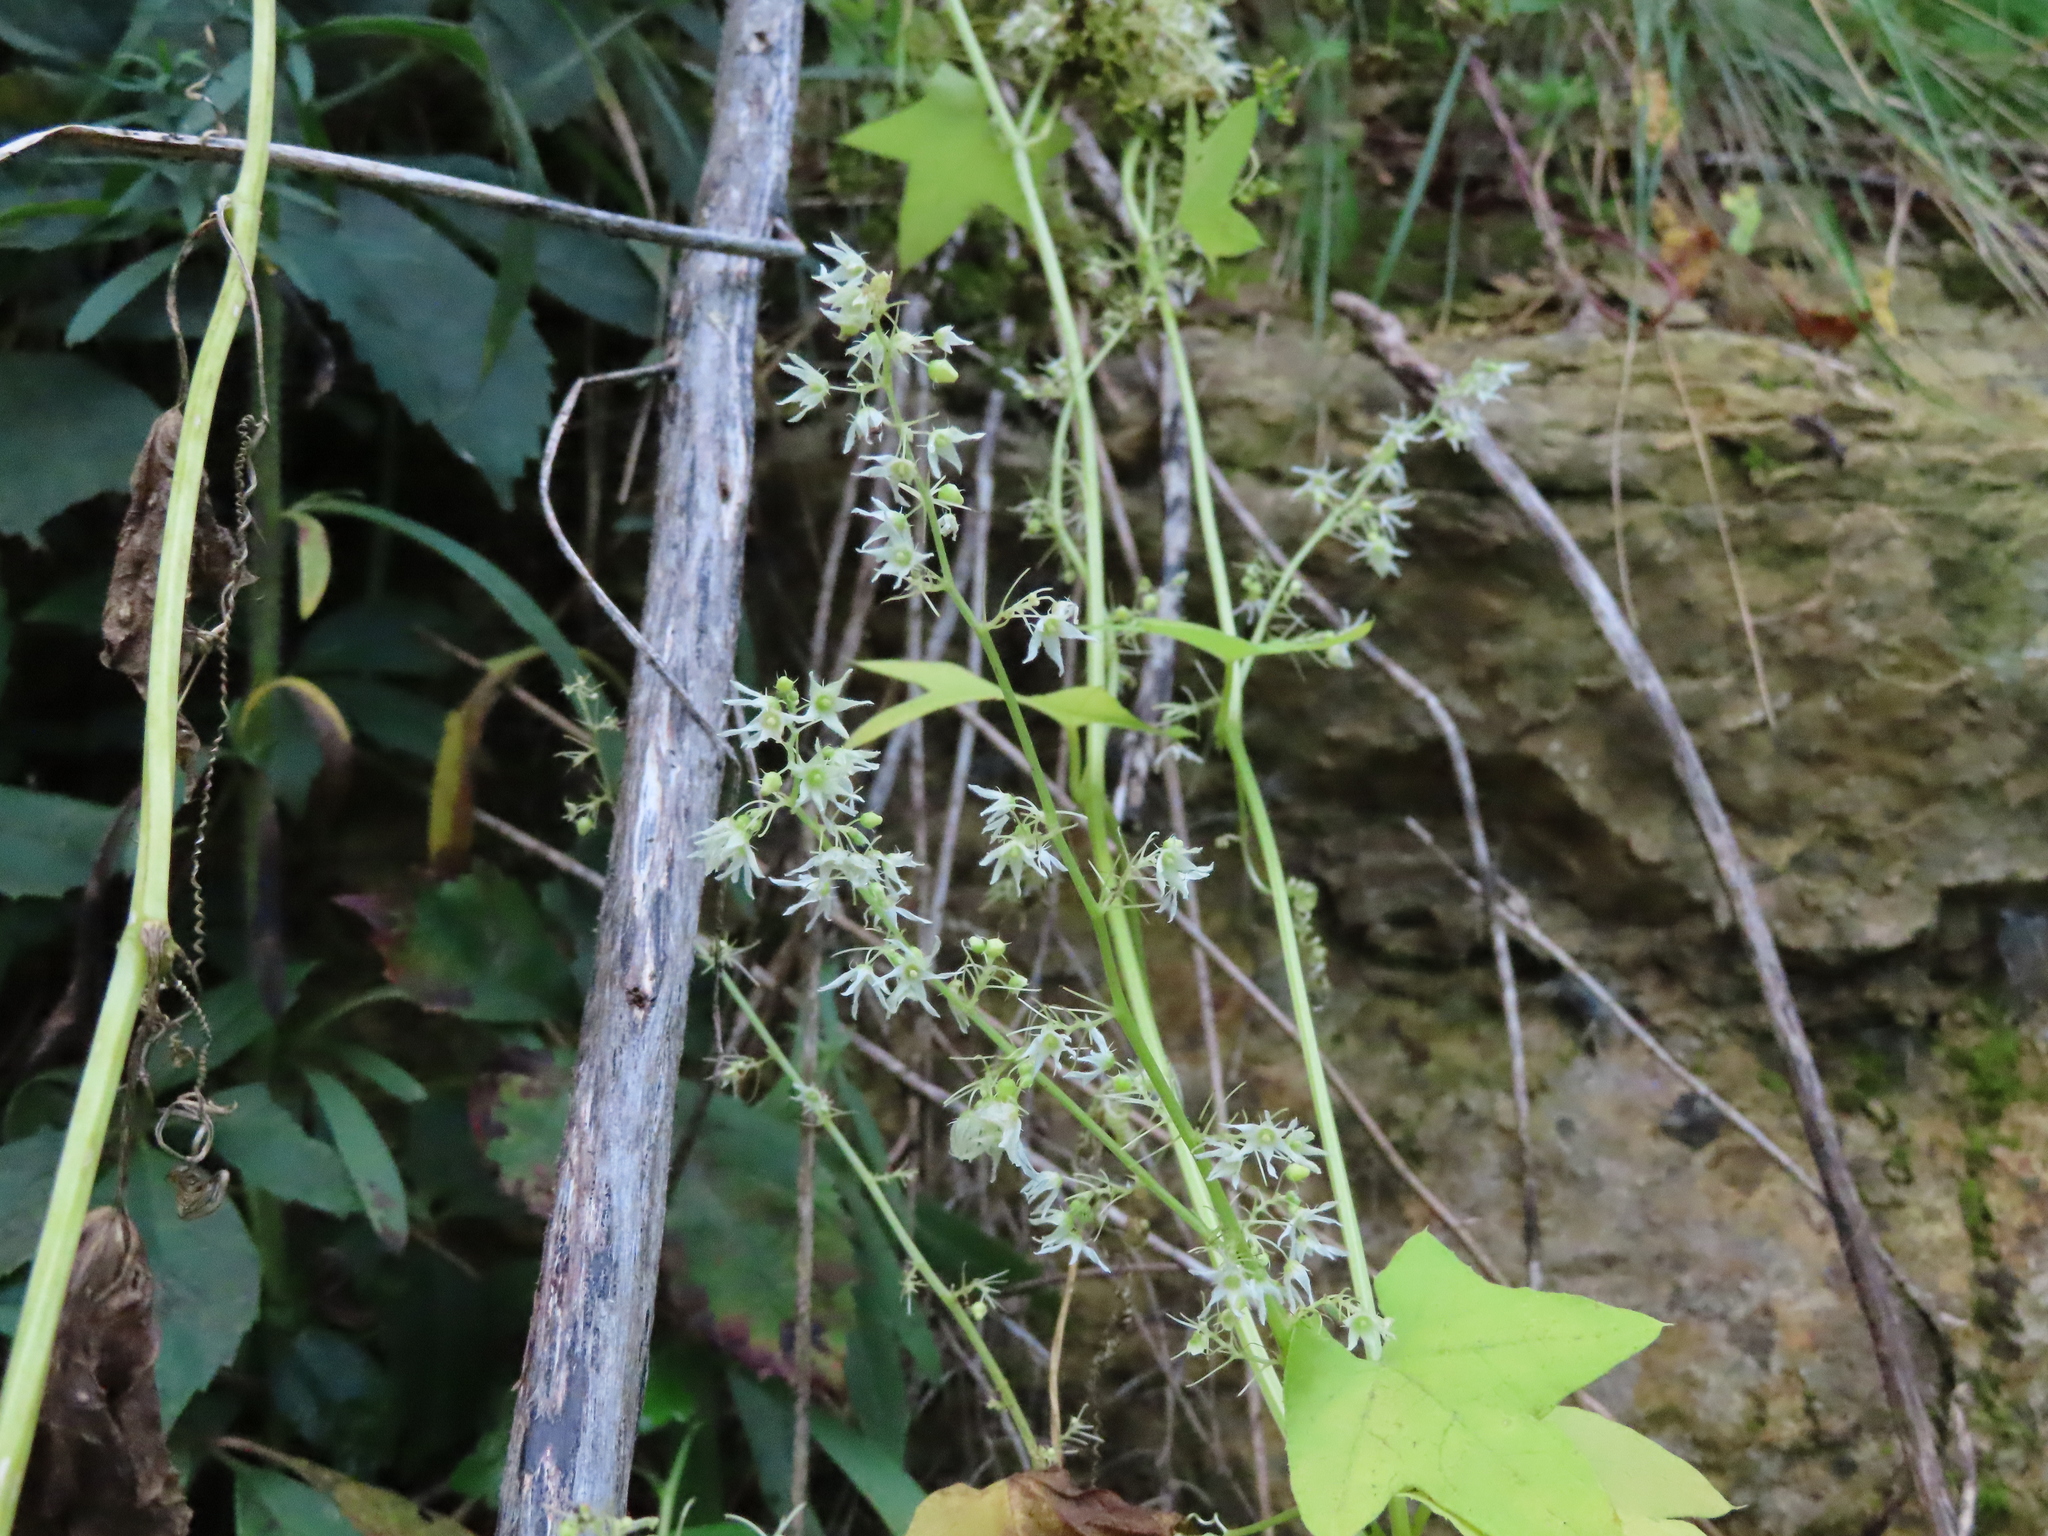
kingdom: Plantae
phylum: Tracheophyta
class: Magnoliopsida
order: Cucurbitales
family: Cucurbitaceae
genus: Echinocystis
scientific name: Echinocystis lobata
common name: Wild cucumber
